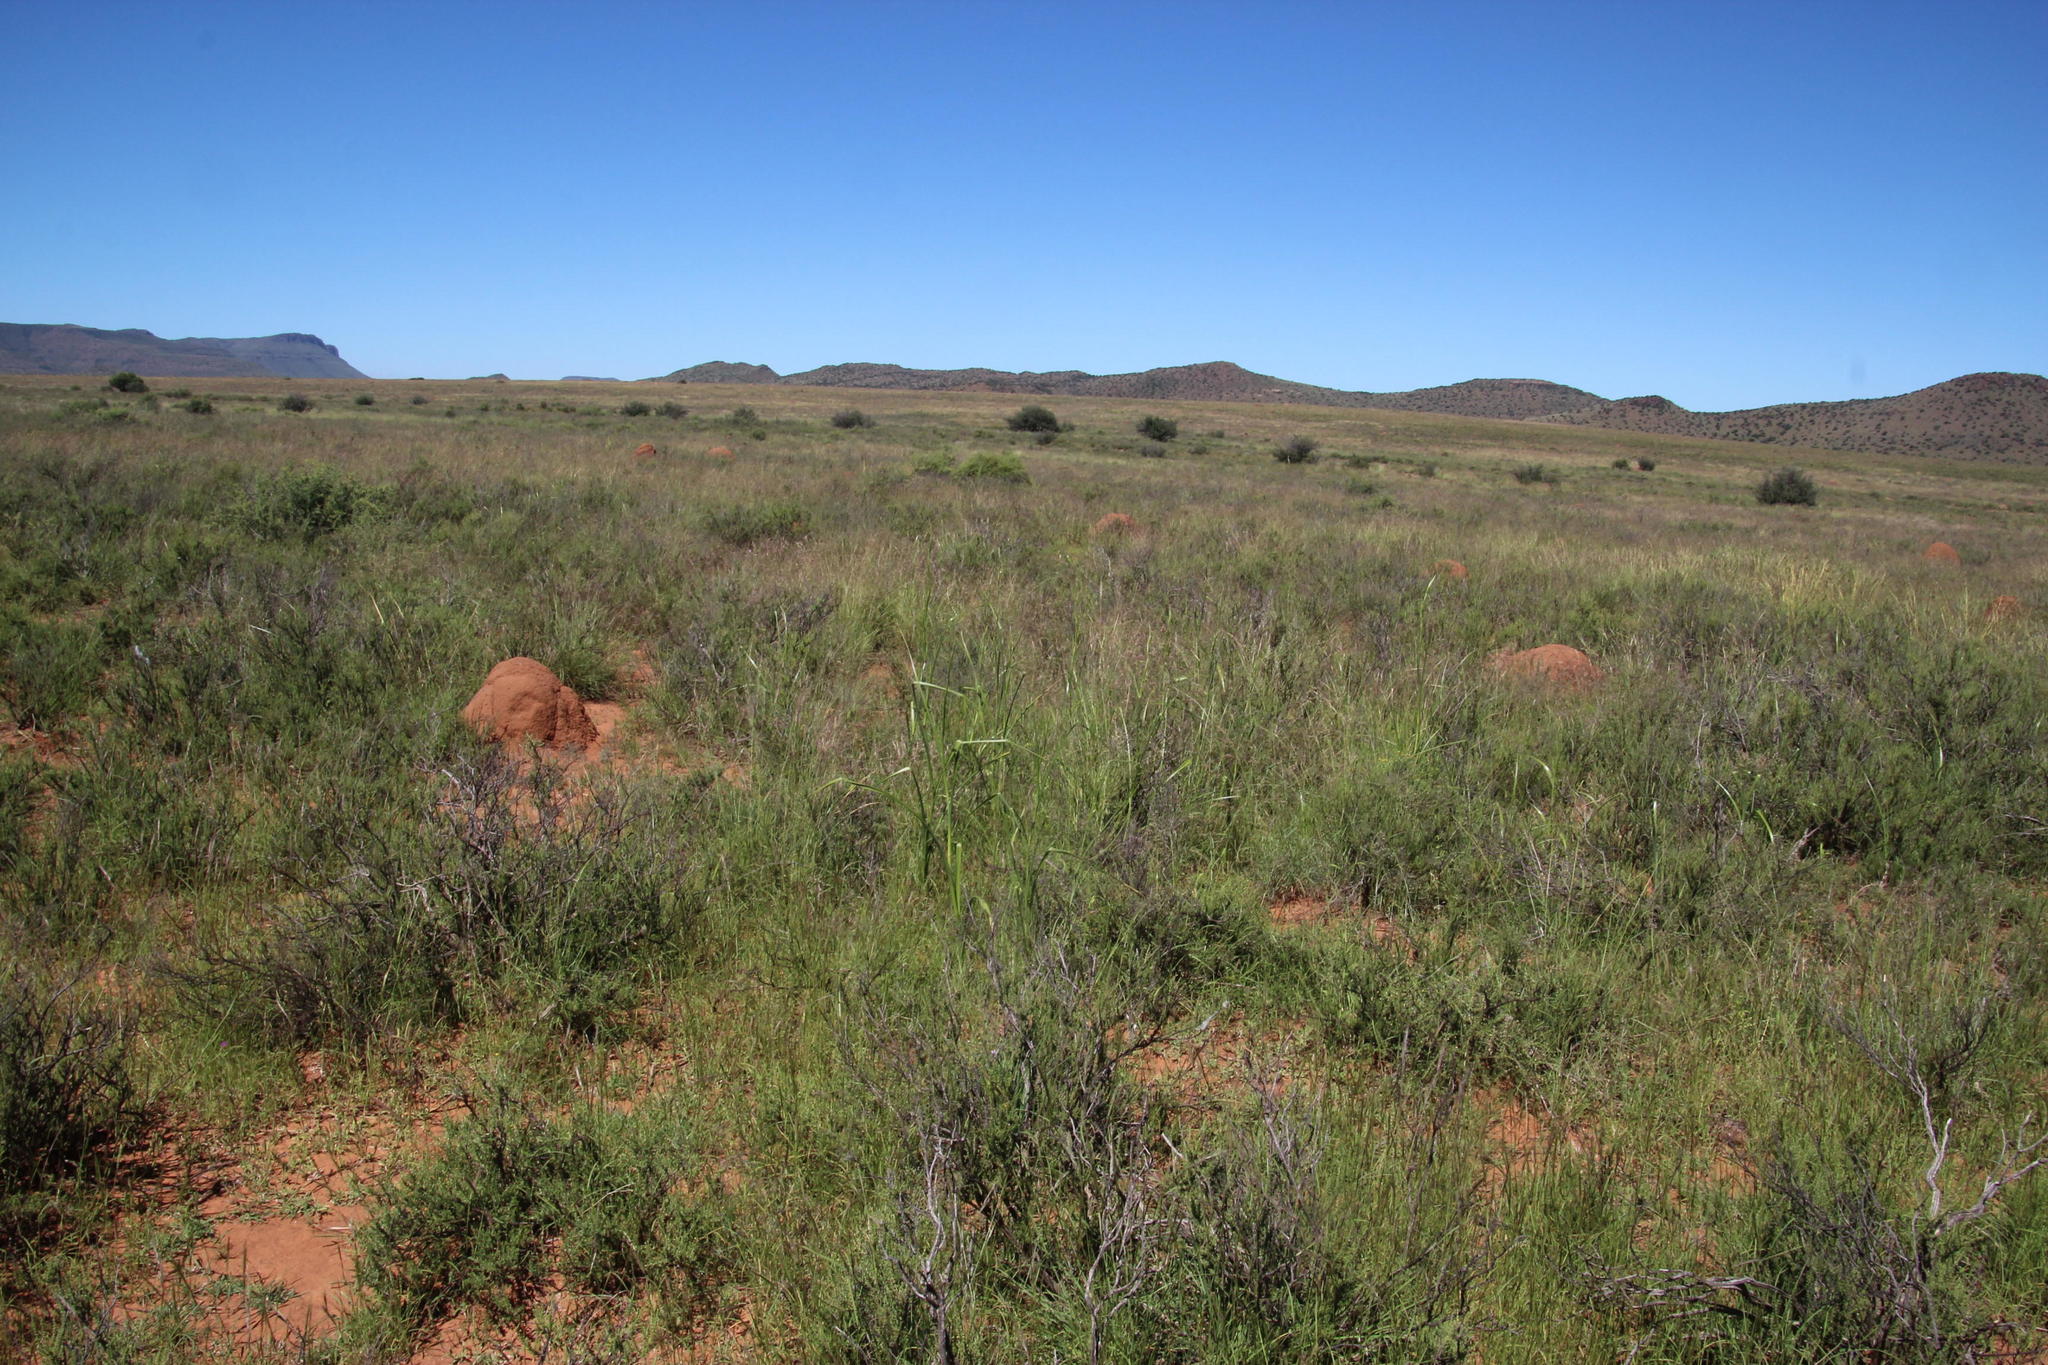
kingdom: Plantae
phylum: Tracheophyta
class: Liliopsida
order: Asparagales
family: Iridaceae
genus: Moraea
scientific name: Moraea polystachya
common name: Blue-tulip
